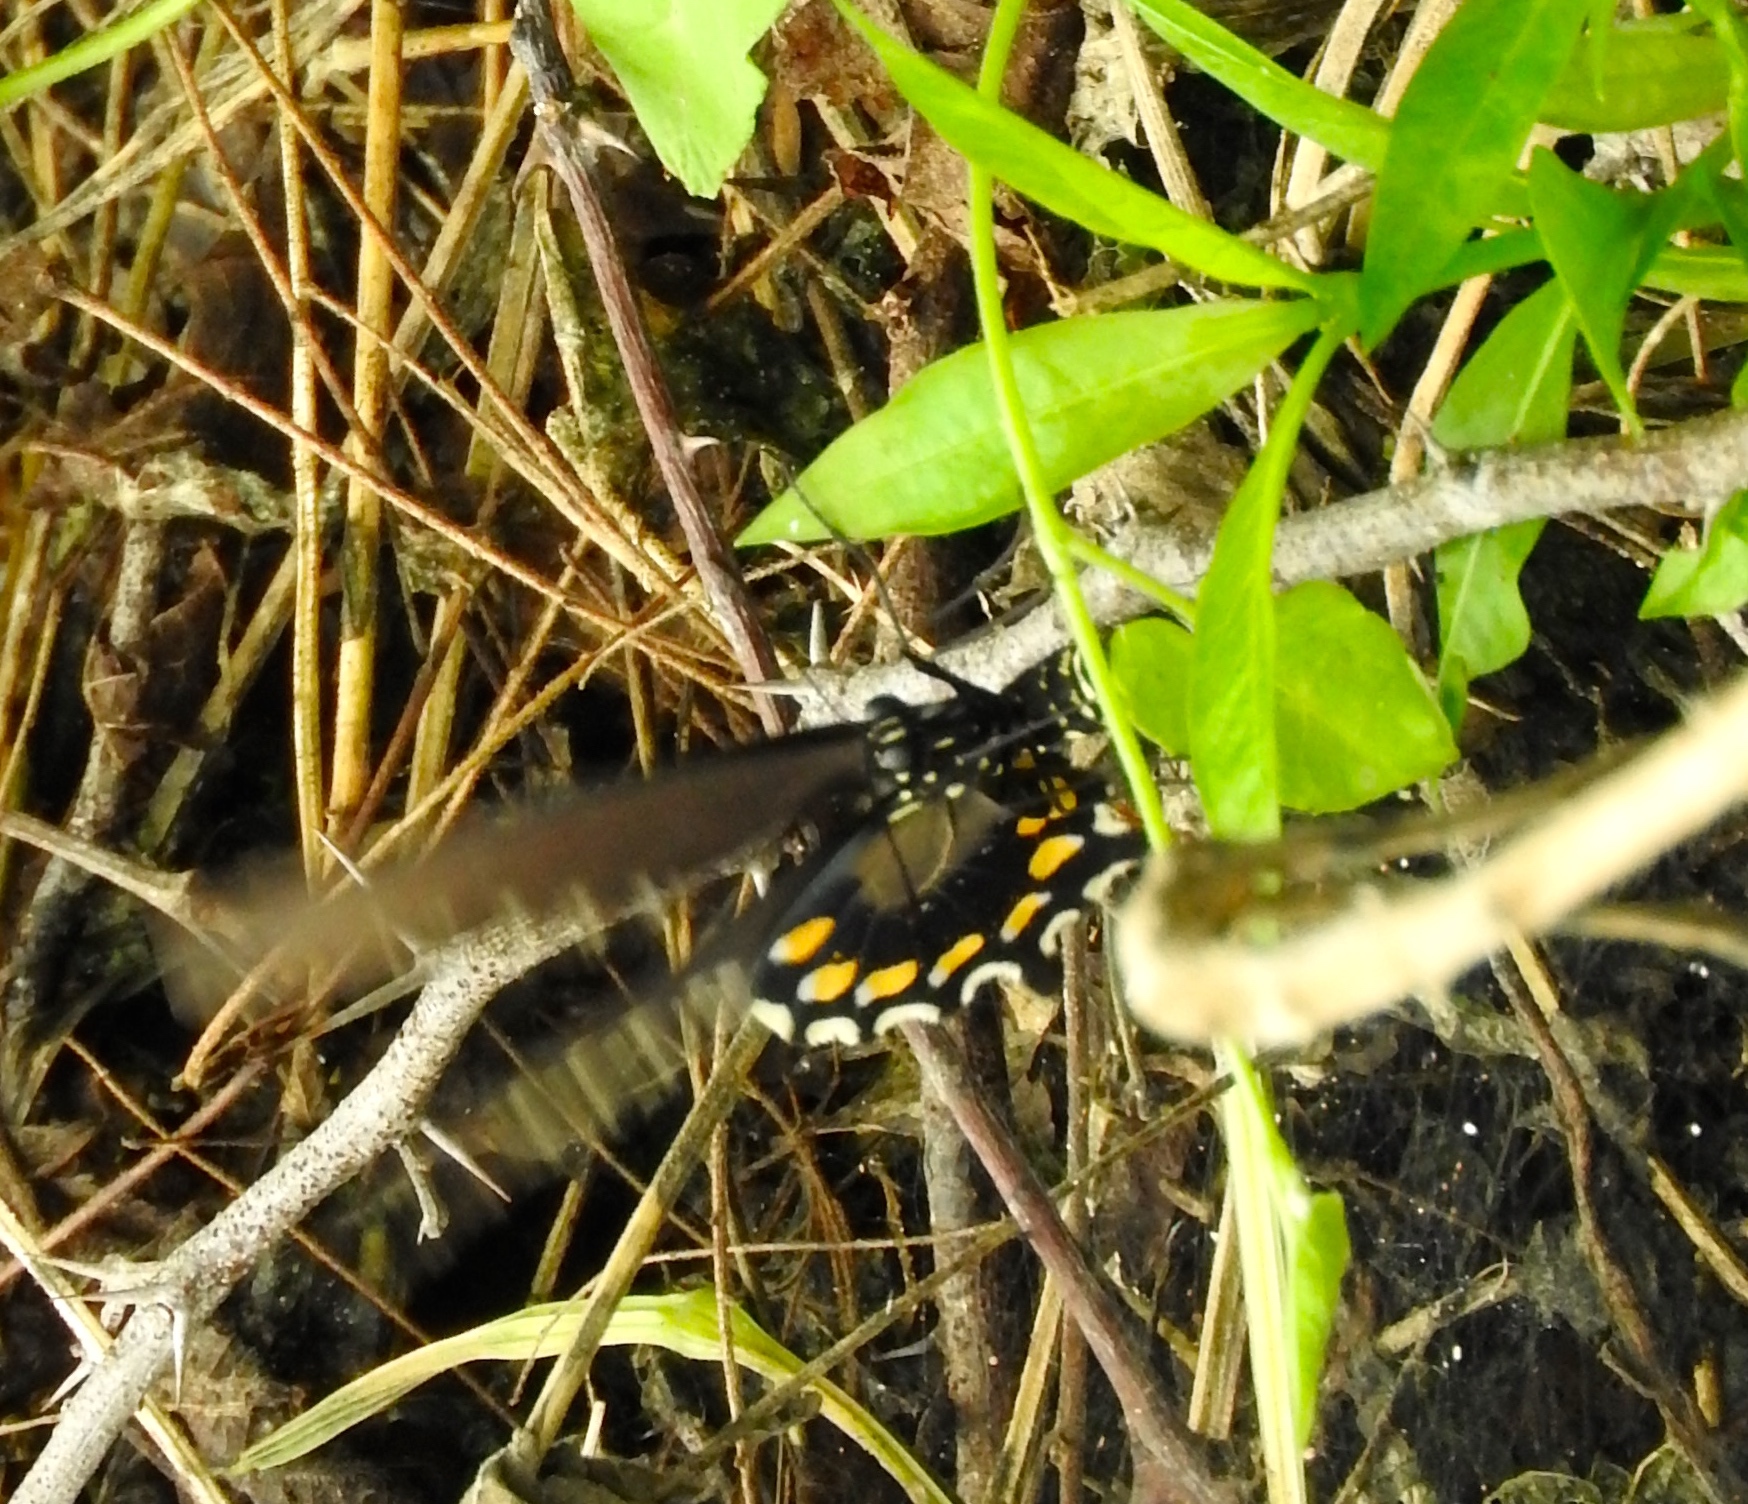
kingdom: Animalia
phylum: Arthropoda
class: Insecta
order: Lepidoptera
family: Papilionidae
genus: Battus
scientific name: Battus philenor
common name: Pipevine swallowtail
